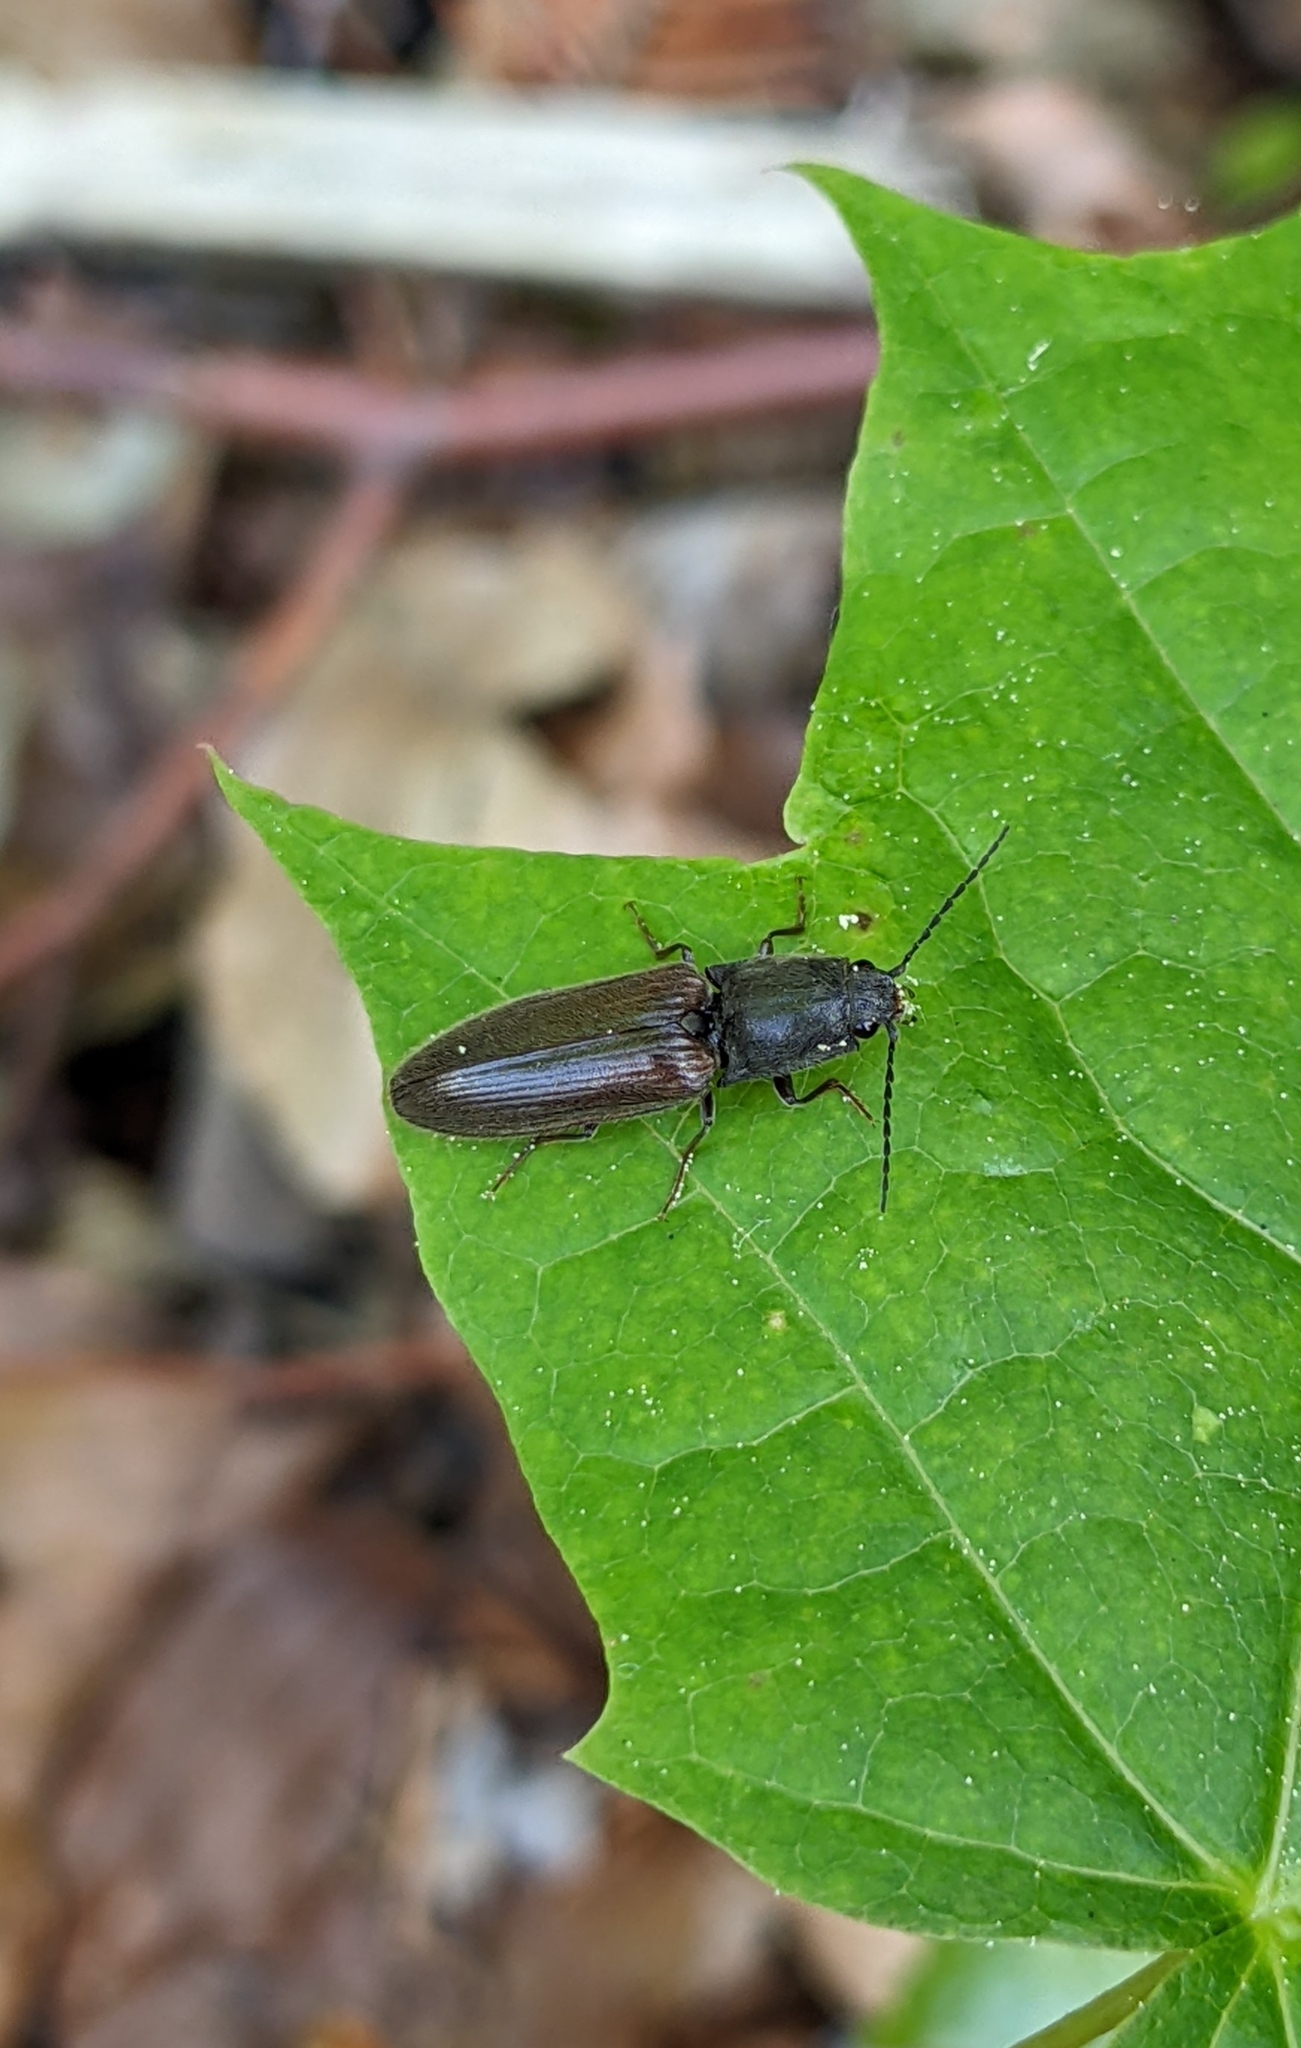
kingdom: Animalia
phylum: Arthropoda
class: Insecta
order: Coleoptera
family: Elateridae
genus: Athous
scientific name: Athous haemorrhoidalis
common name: Red-brown click beetle
